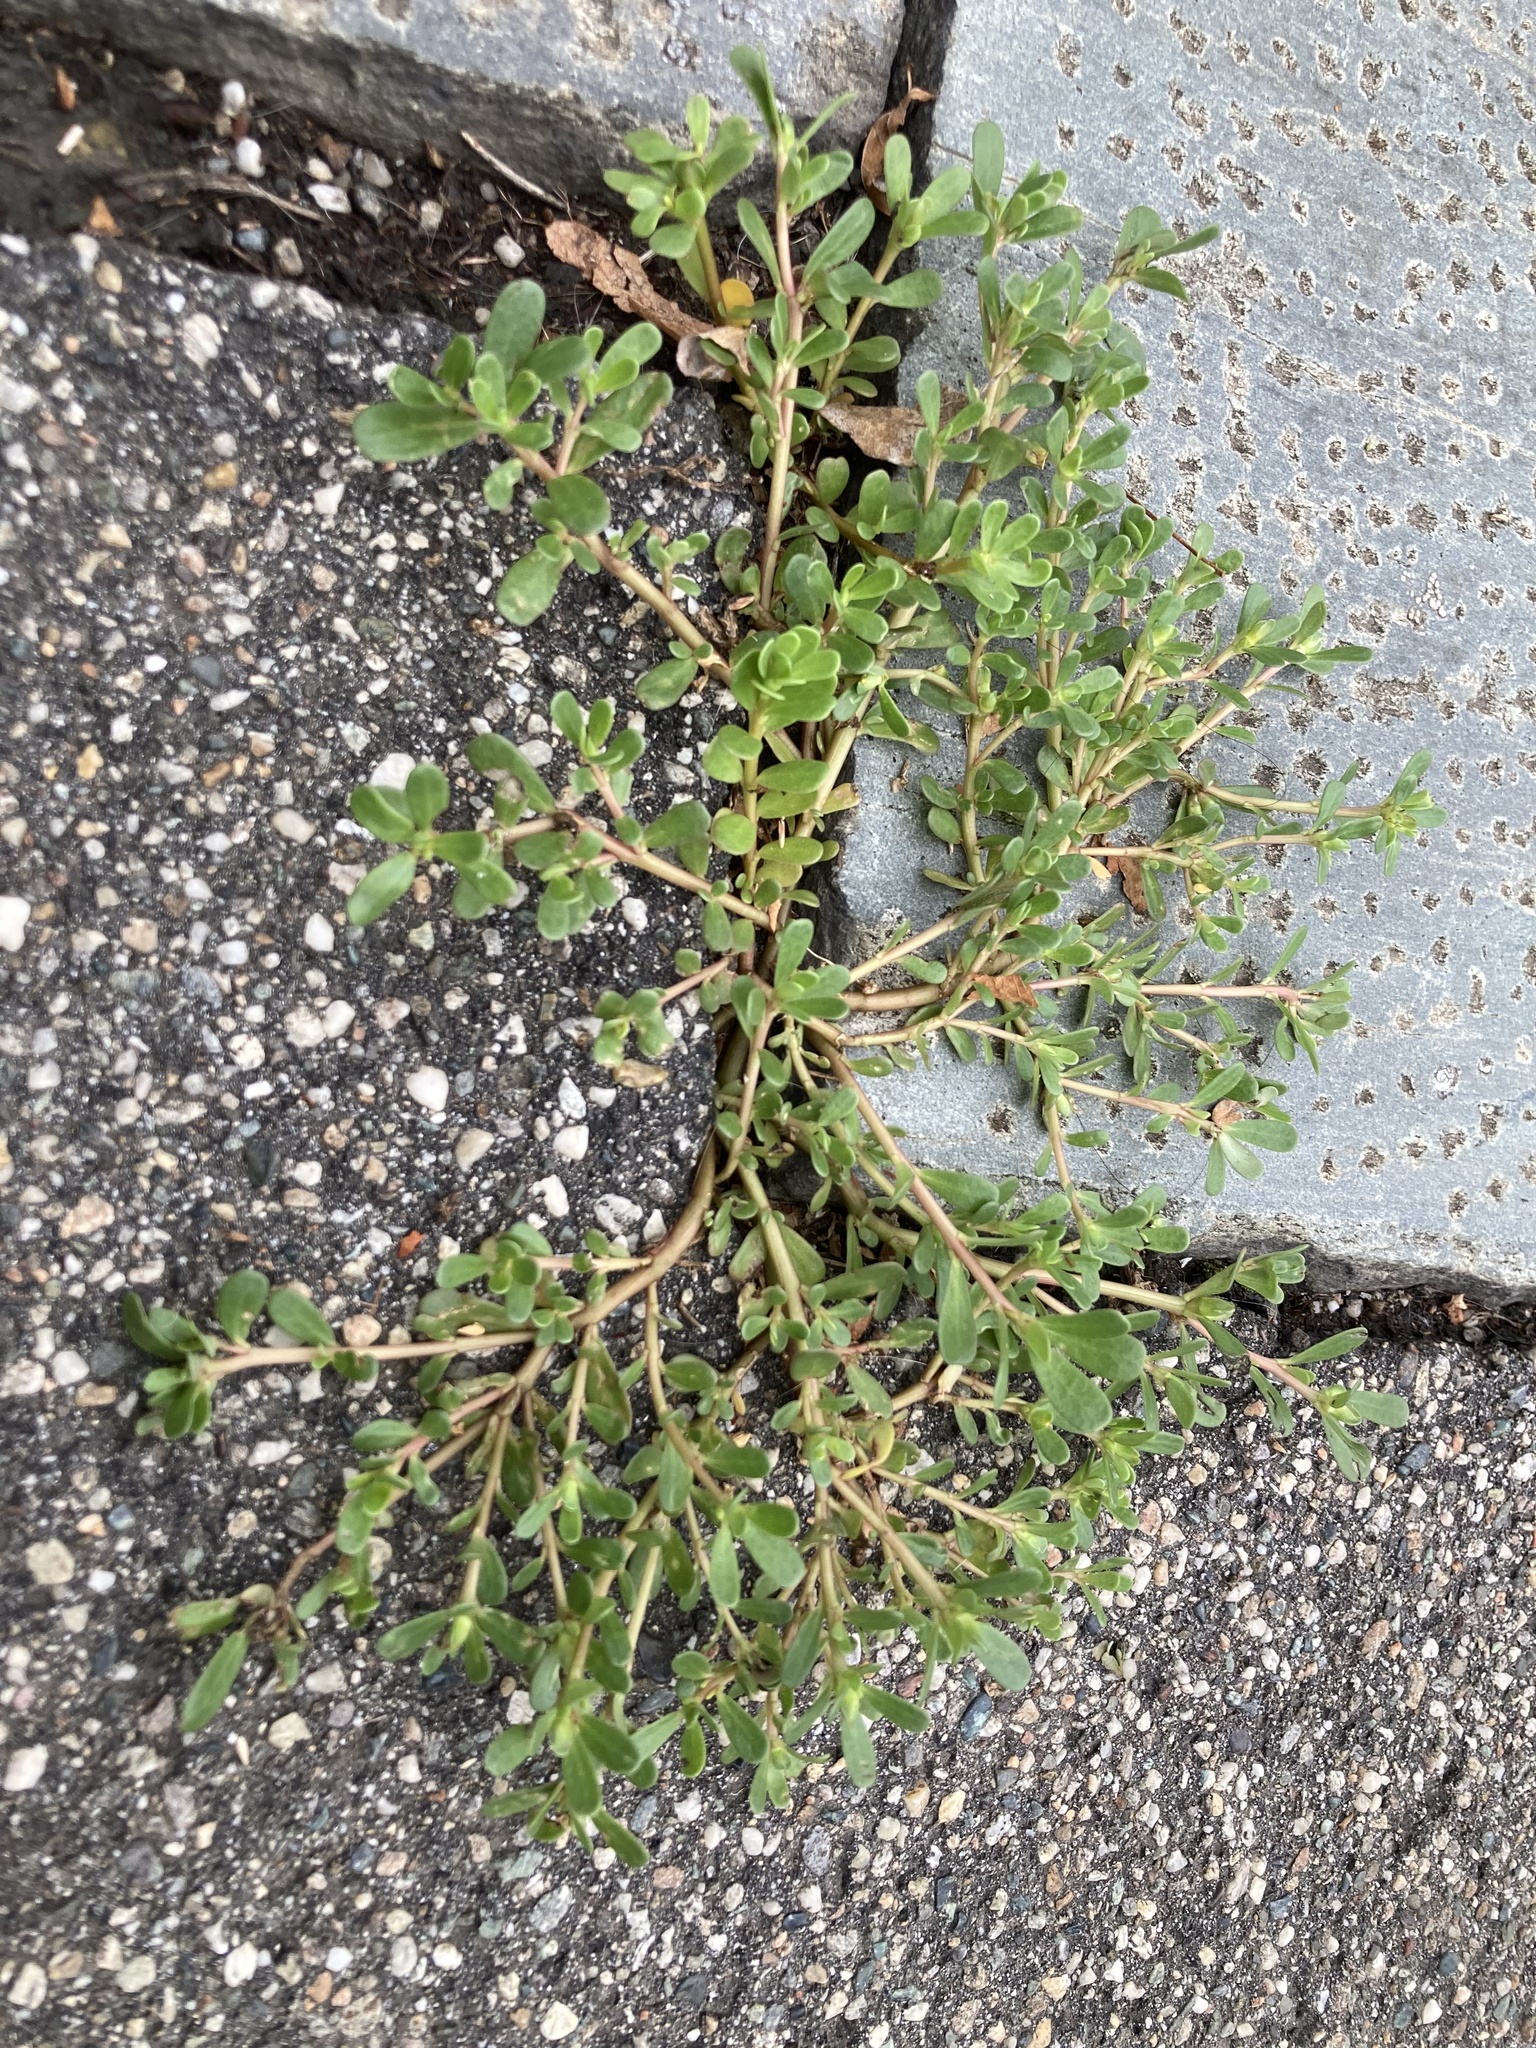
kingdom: Plantae
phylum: Tracheophyta
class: Magnoliopsida
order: Caryophyllales
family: Portulacaceae
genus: Portulaca
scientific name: Portulaca oleracea
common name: Common purslane
